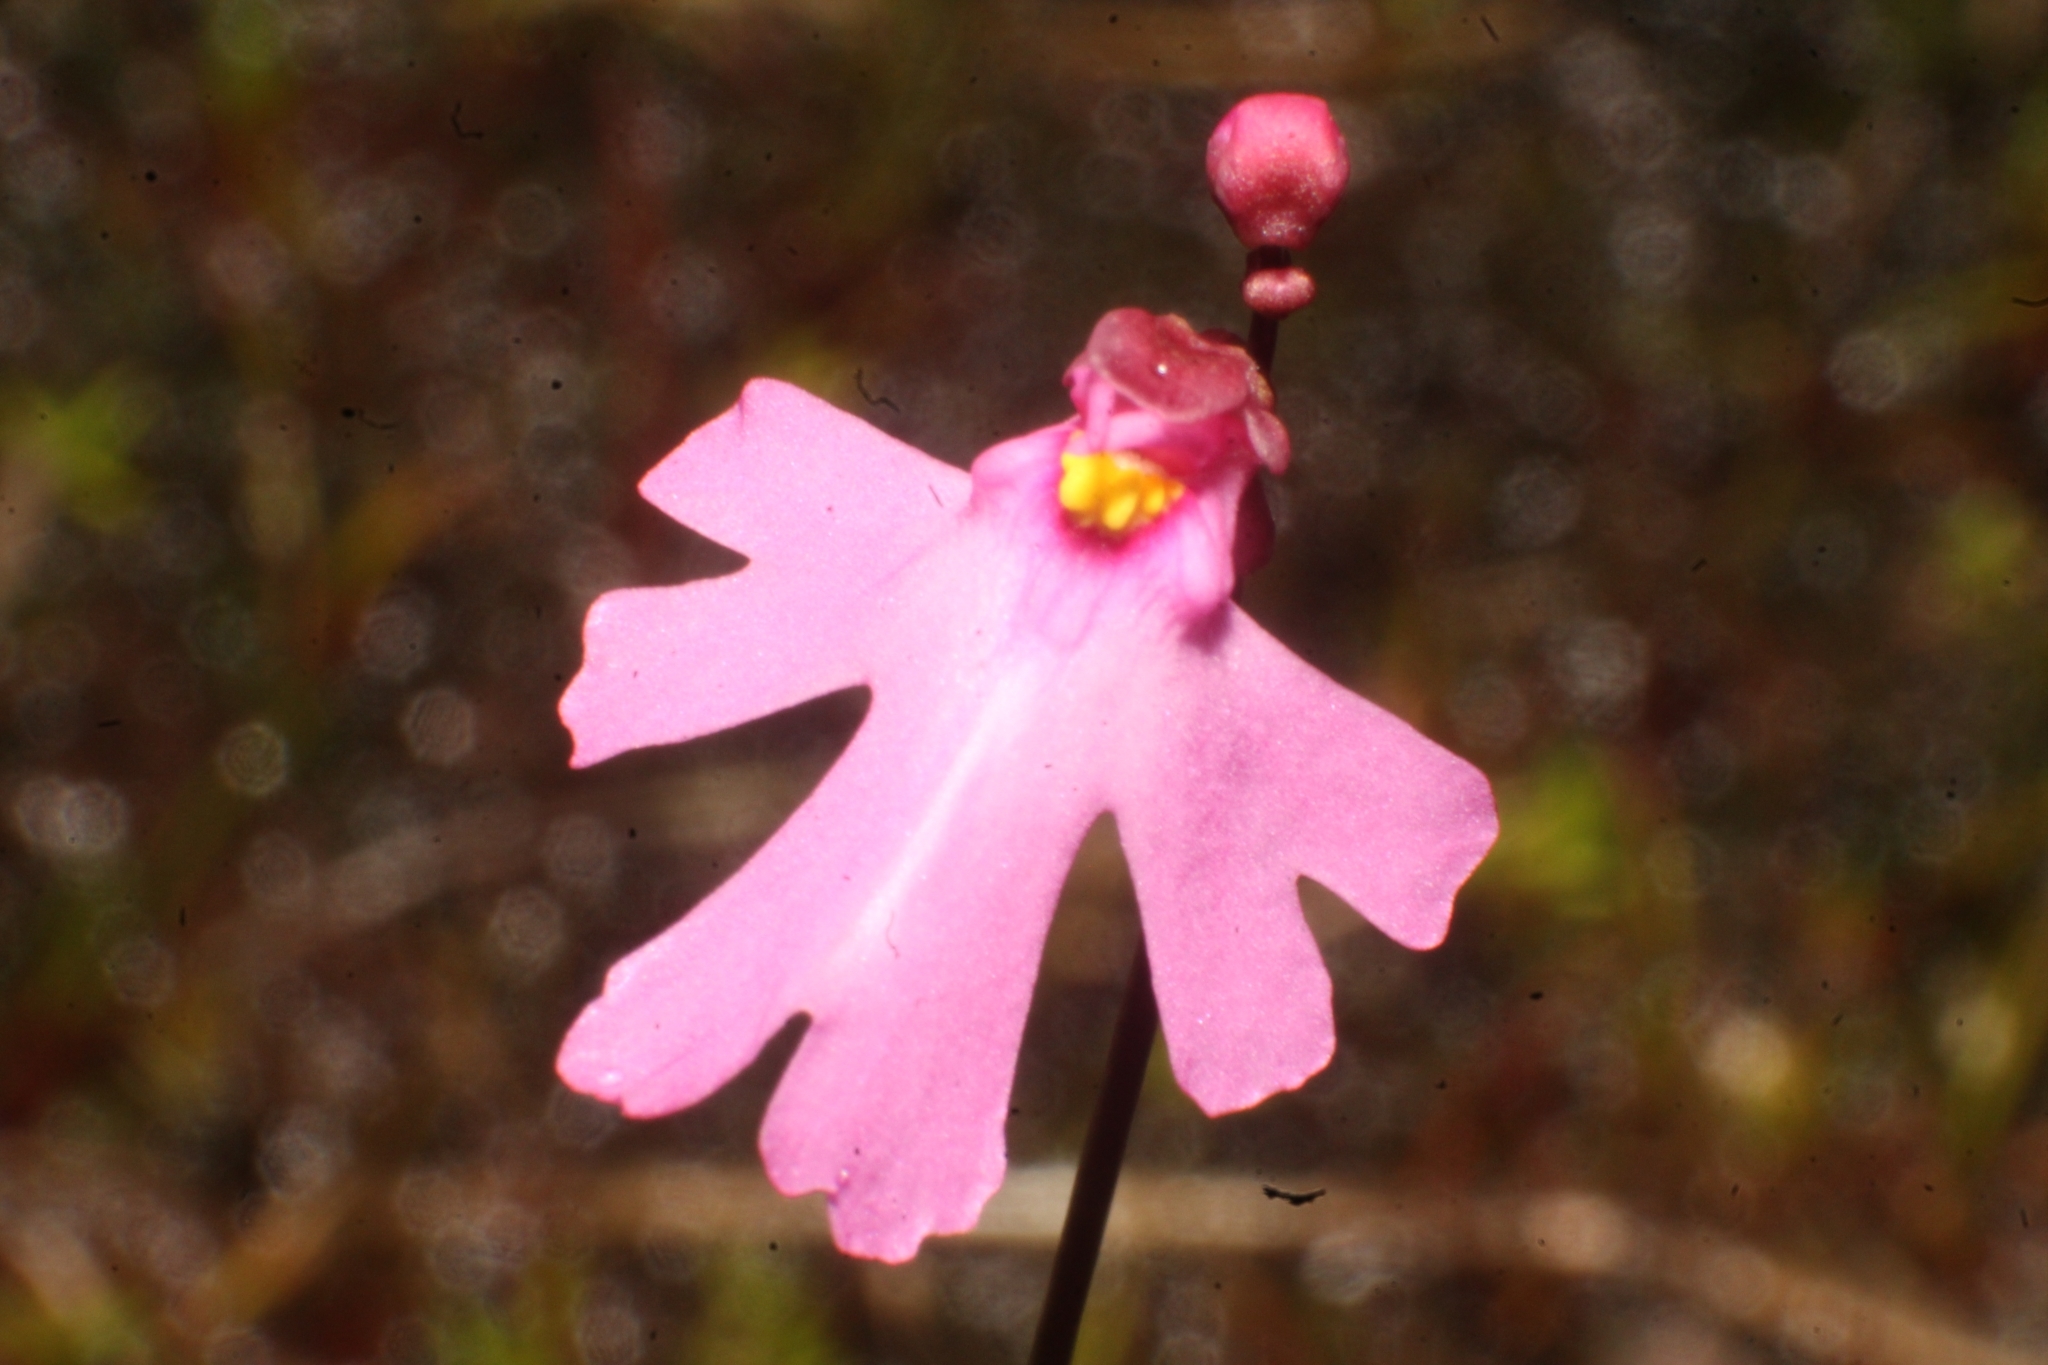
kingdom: Plantae
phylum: Tracheophyta
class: Magnoliopsida
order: Lamiales
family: Lentibulariaceae
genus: Utricularia
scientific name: Utricularia multifida
